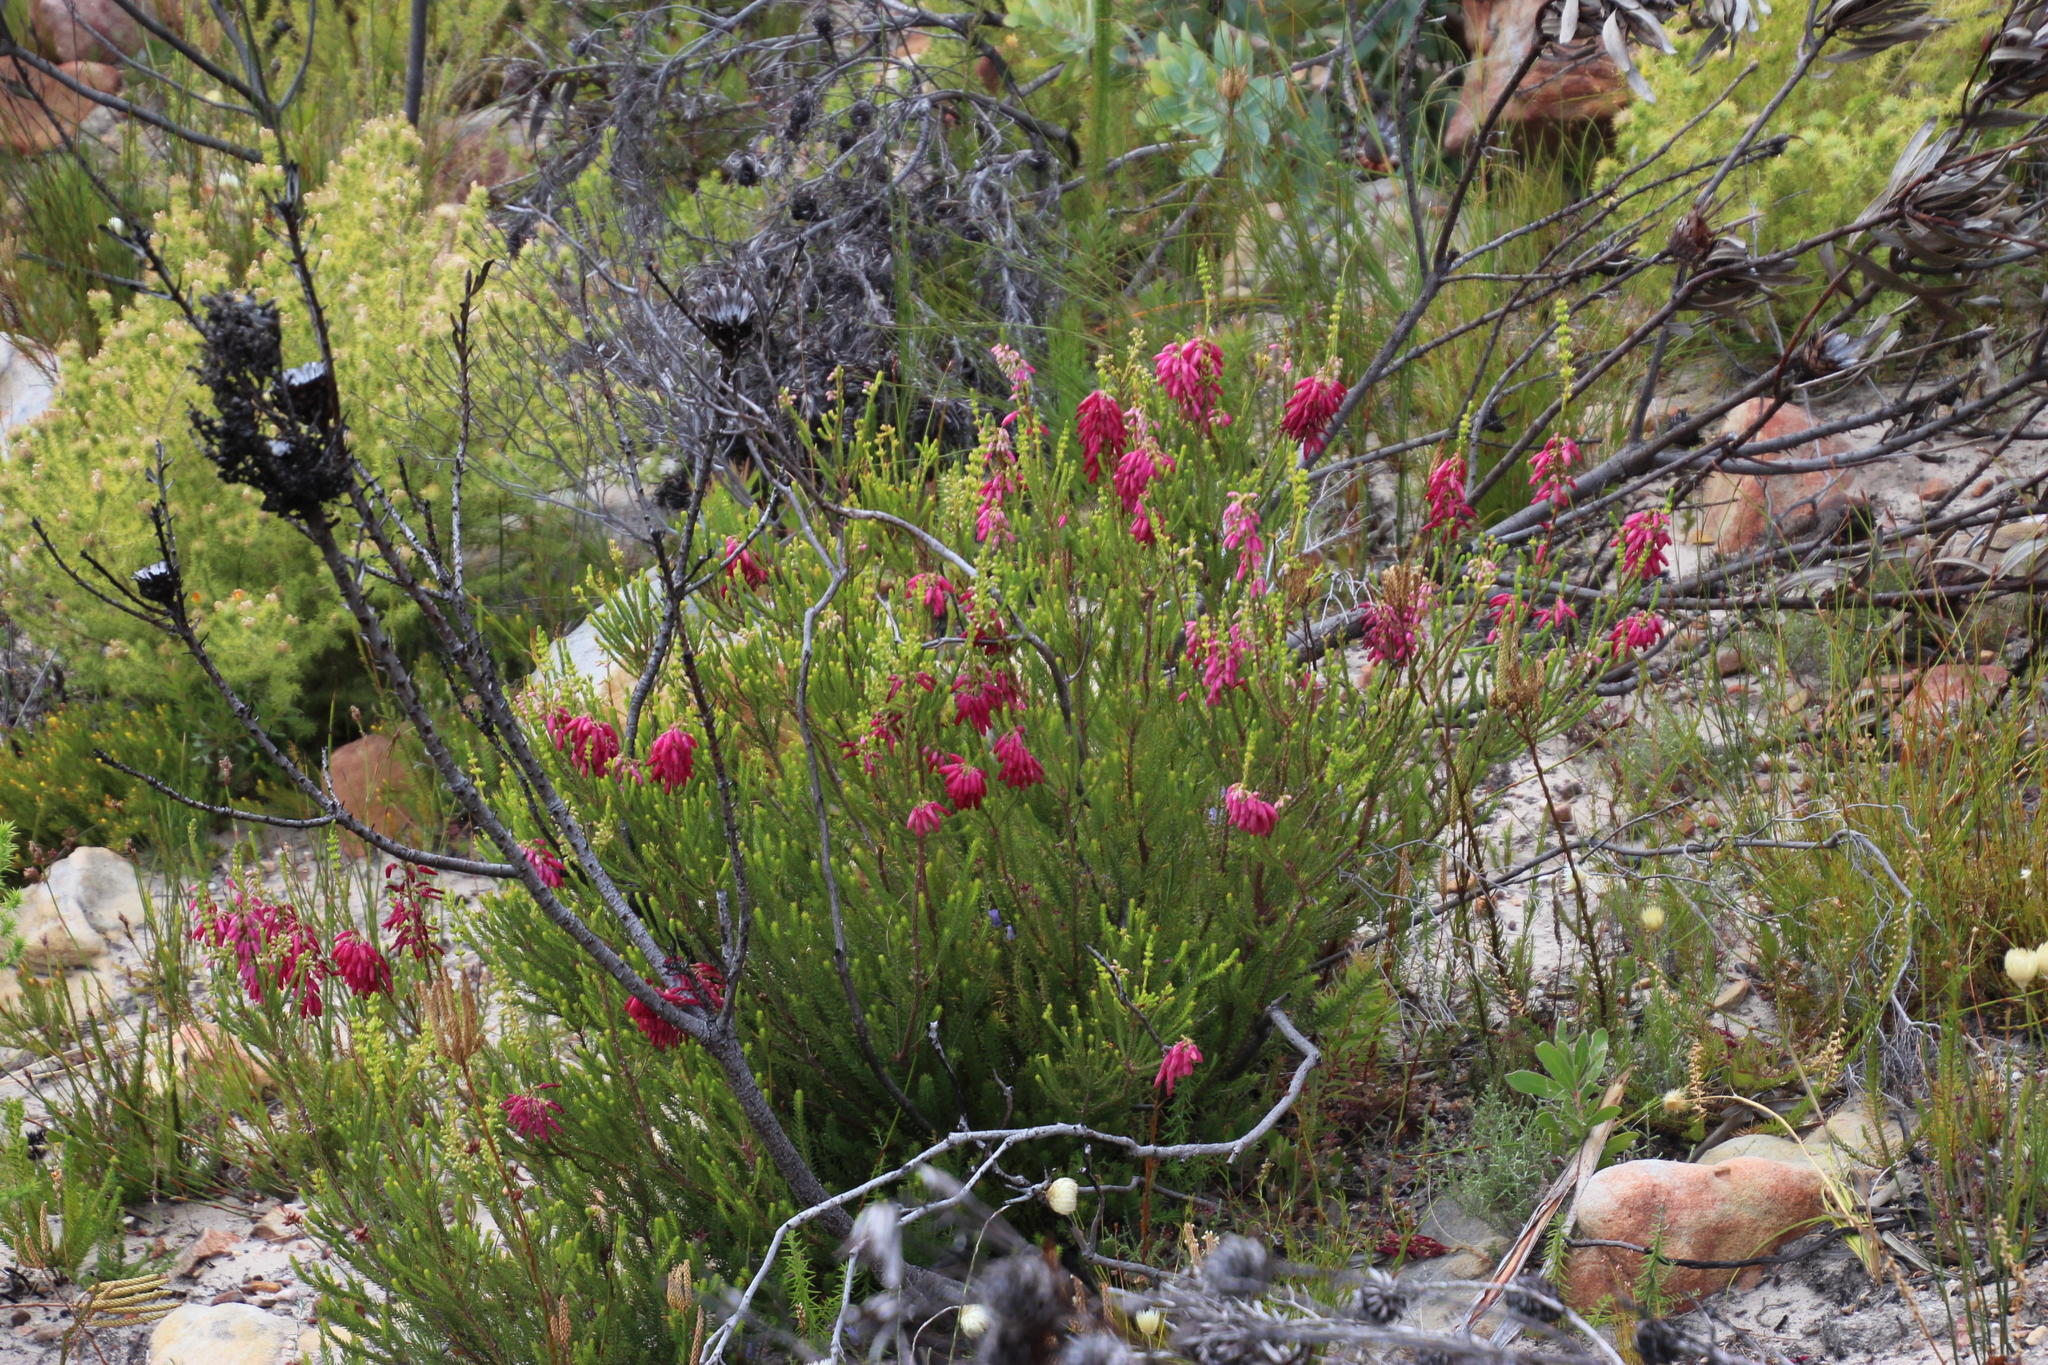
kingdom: Plantae
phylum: Tracheophyta
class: Magnoliopsida
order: Ericales
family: Ericaceae
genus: Erica
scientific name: Erica mammosa
